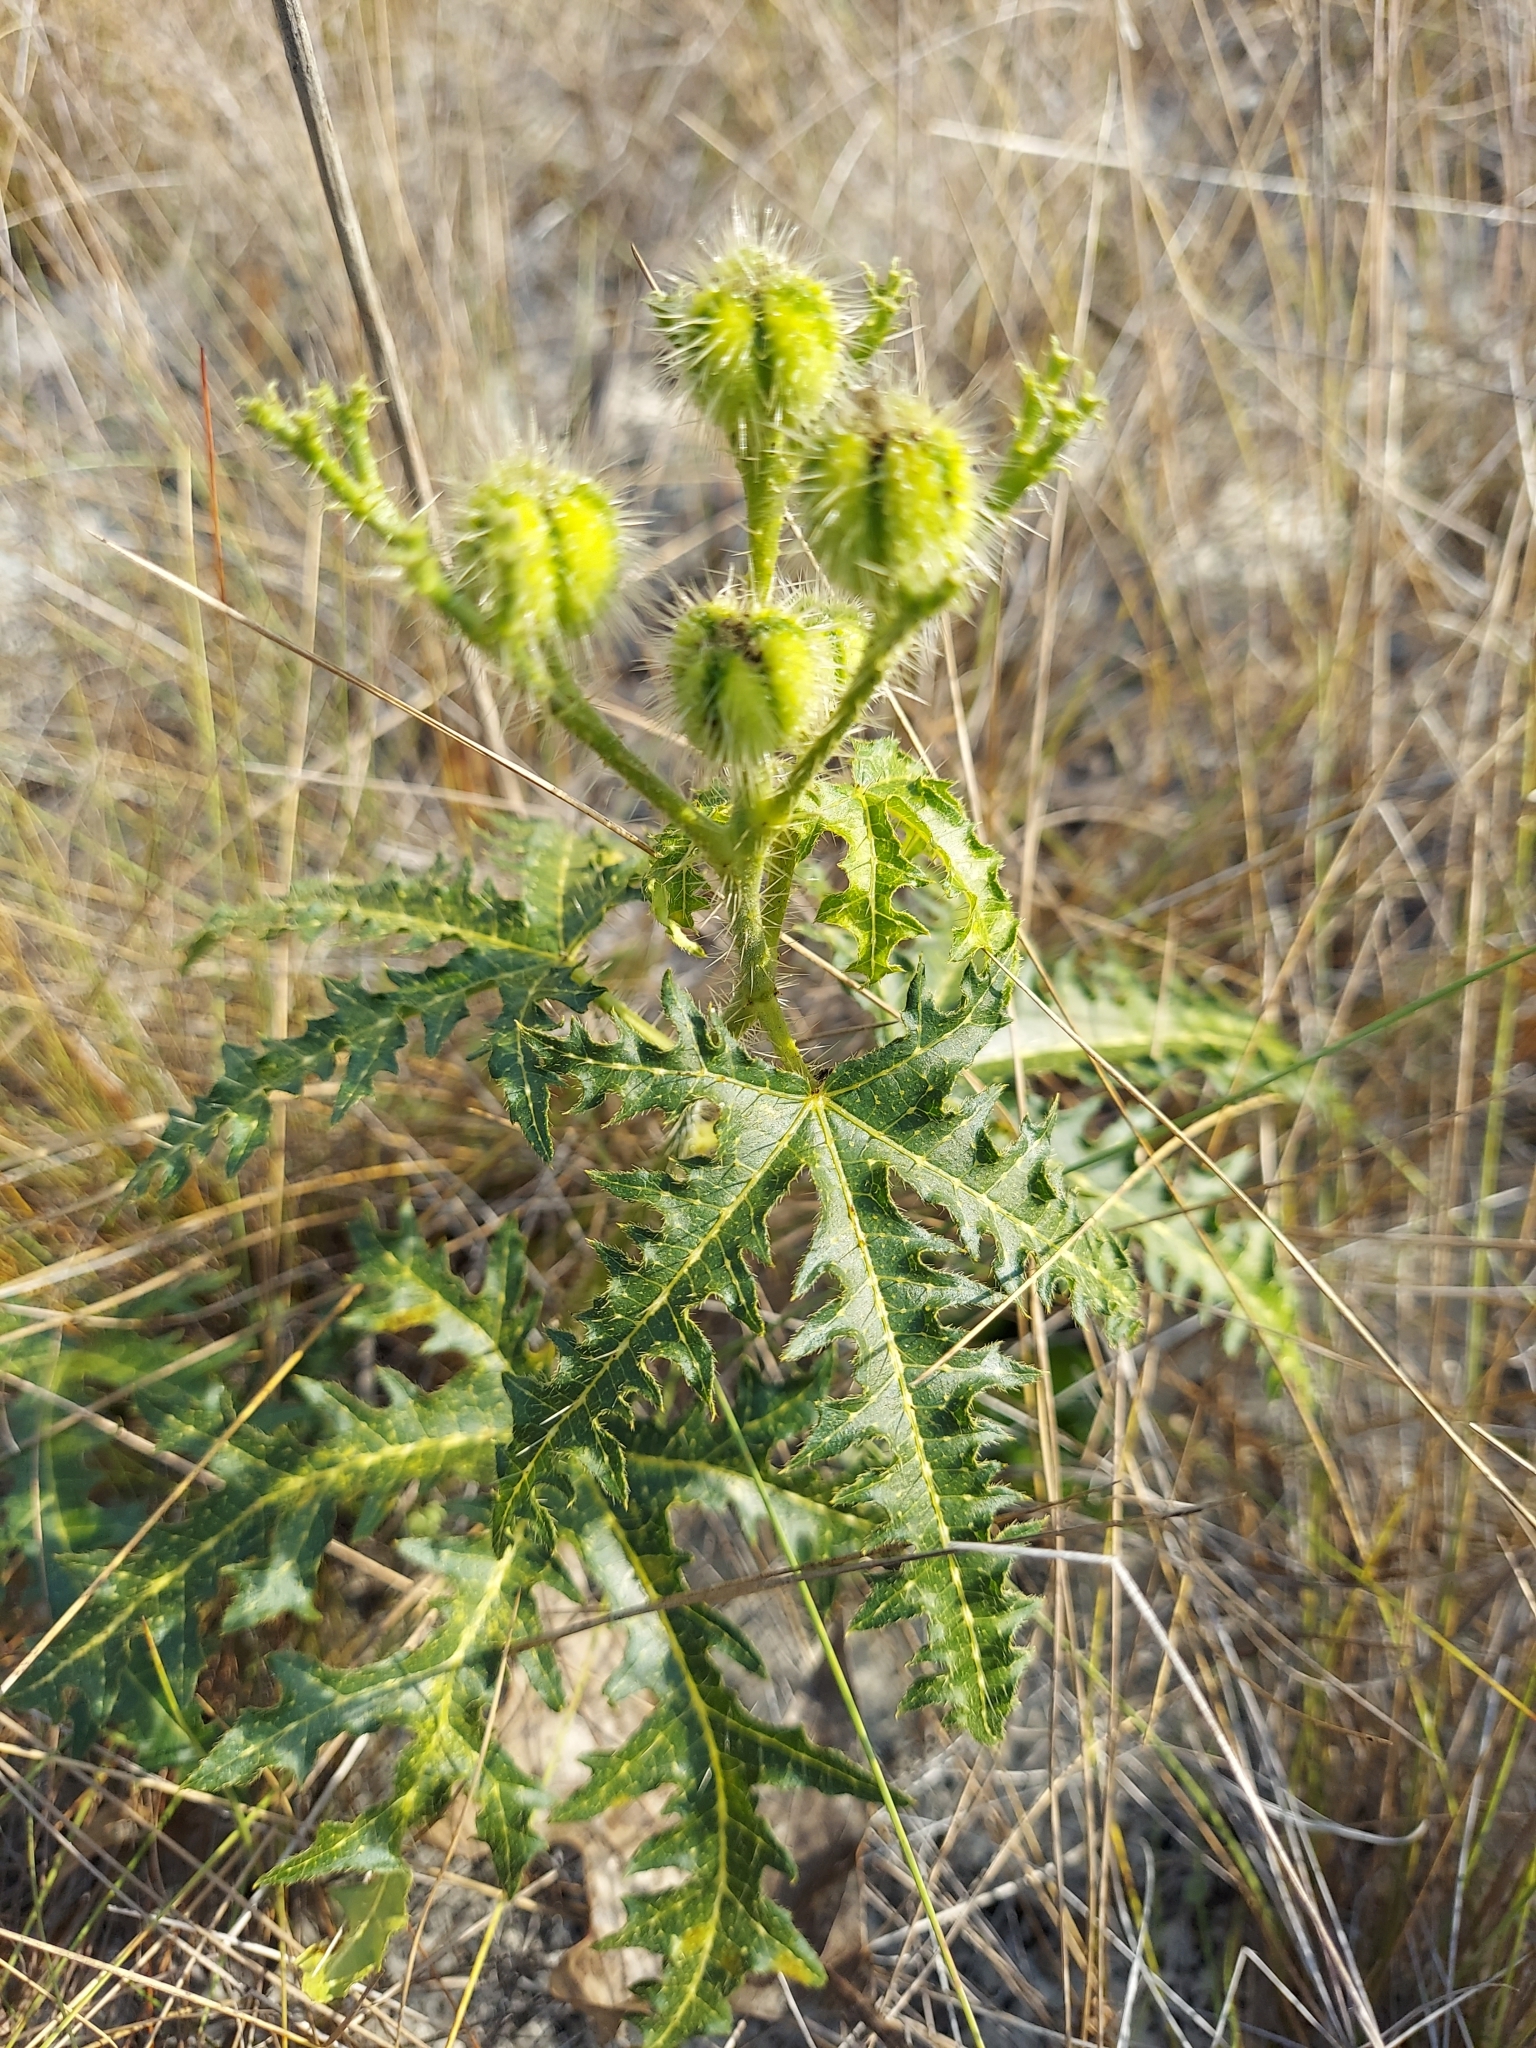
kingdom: Plantae
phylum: Tracheophyta
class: Magnoliopsida
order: Malpighiales
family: Euphorbiaceae
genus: Cnidoscolus
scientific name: Cnidoscolus stimulosus
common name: Bull-nettle
